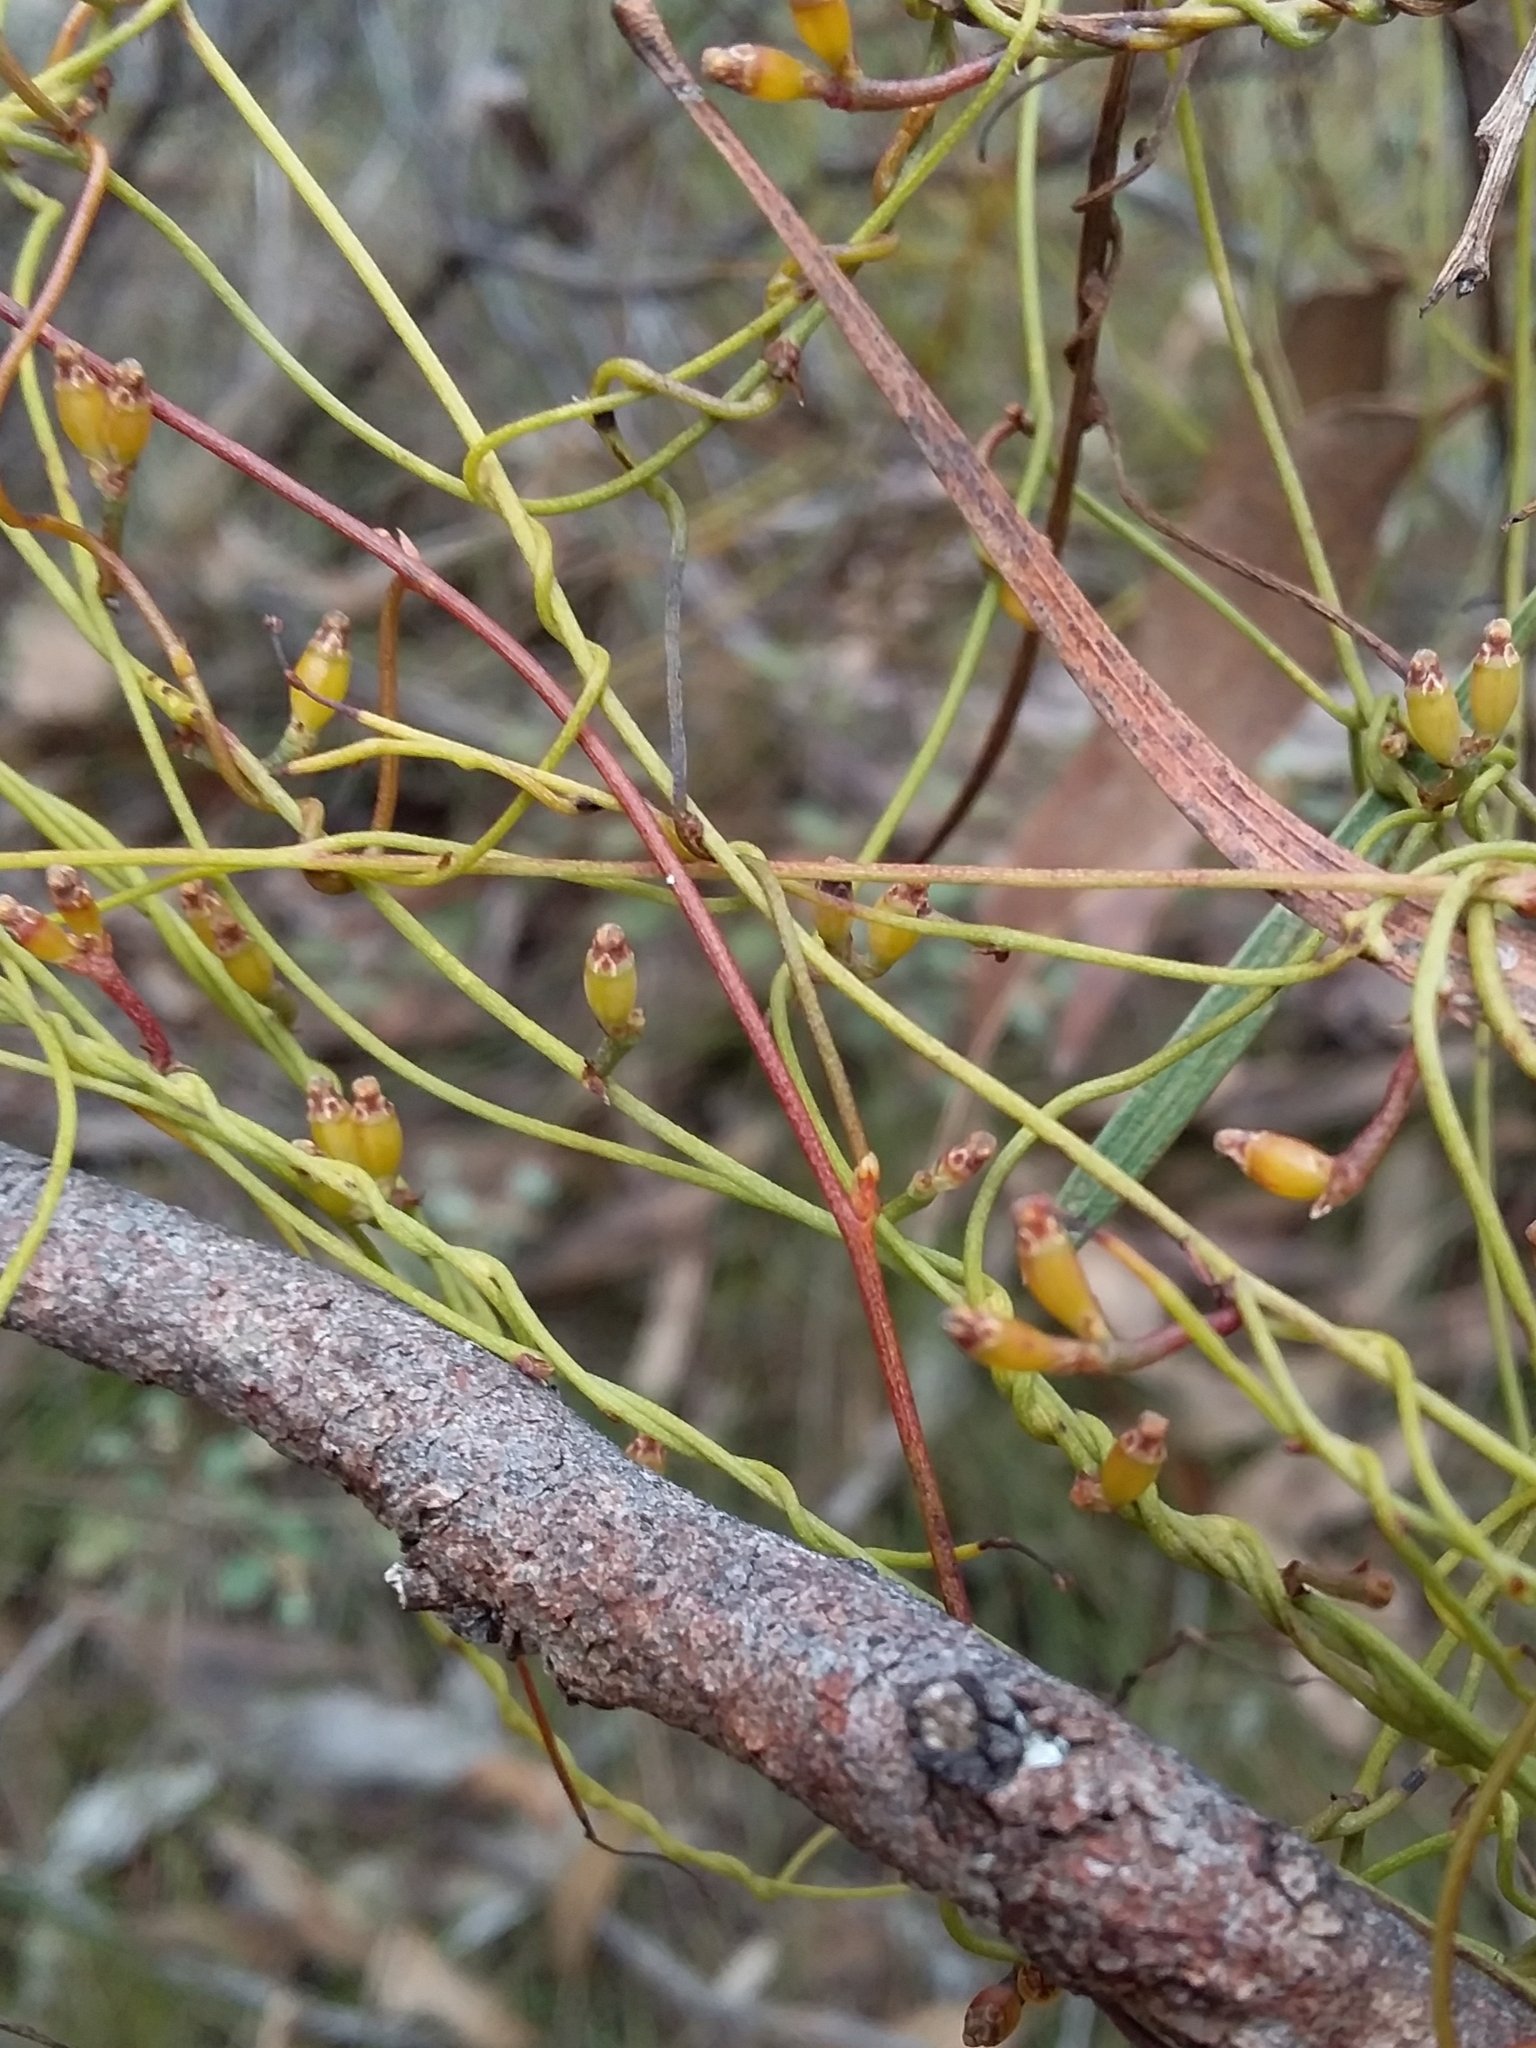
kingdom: Plantae
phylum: Tracheophyta
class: Magnoliopsida
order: Laurales
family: Lauraceae
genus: Cassytha
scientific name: Cassytha glabella
